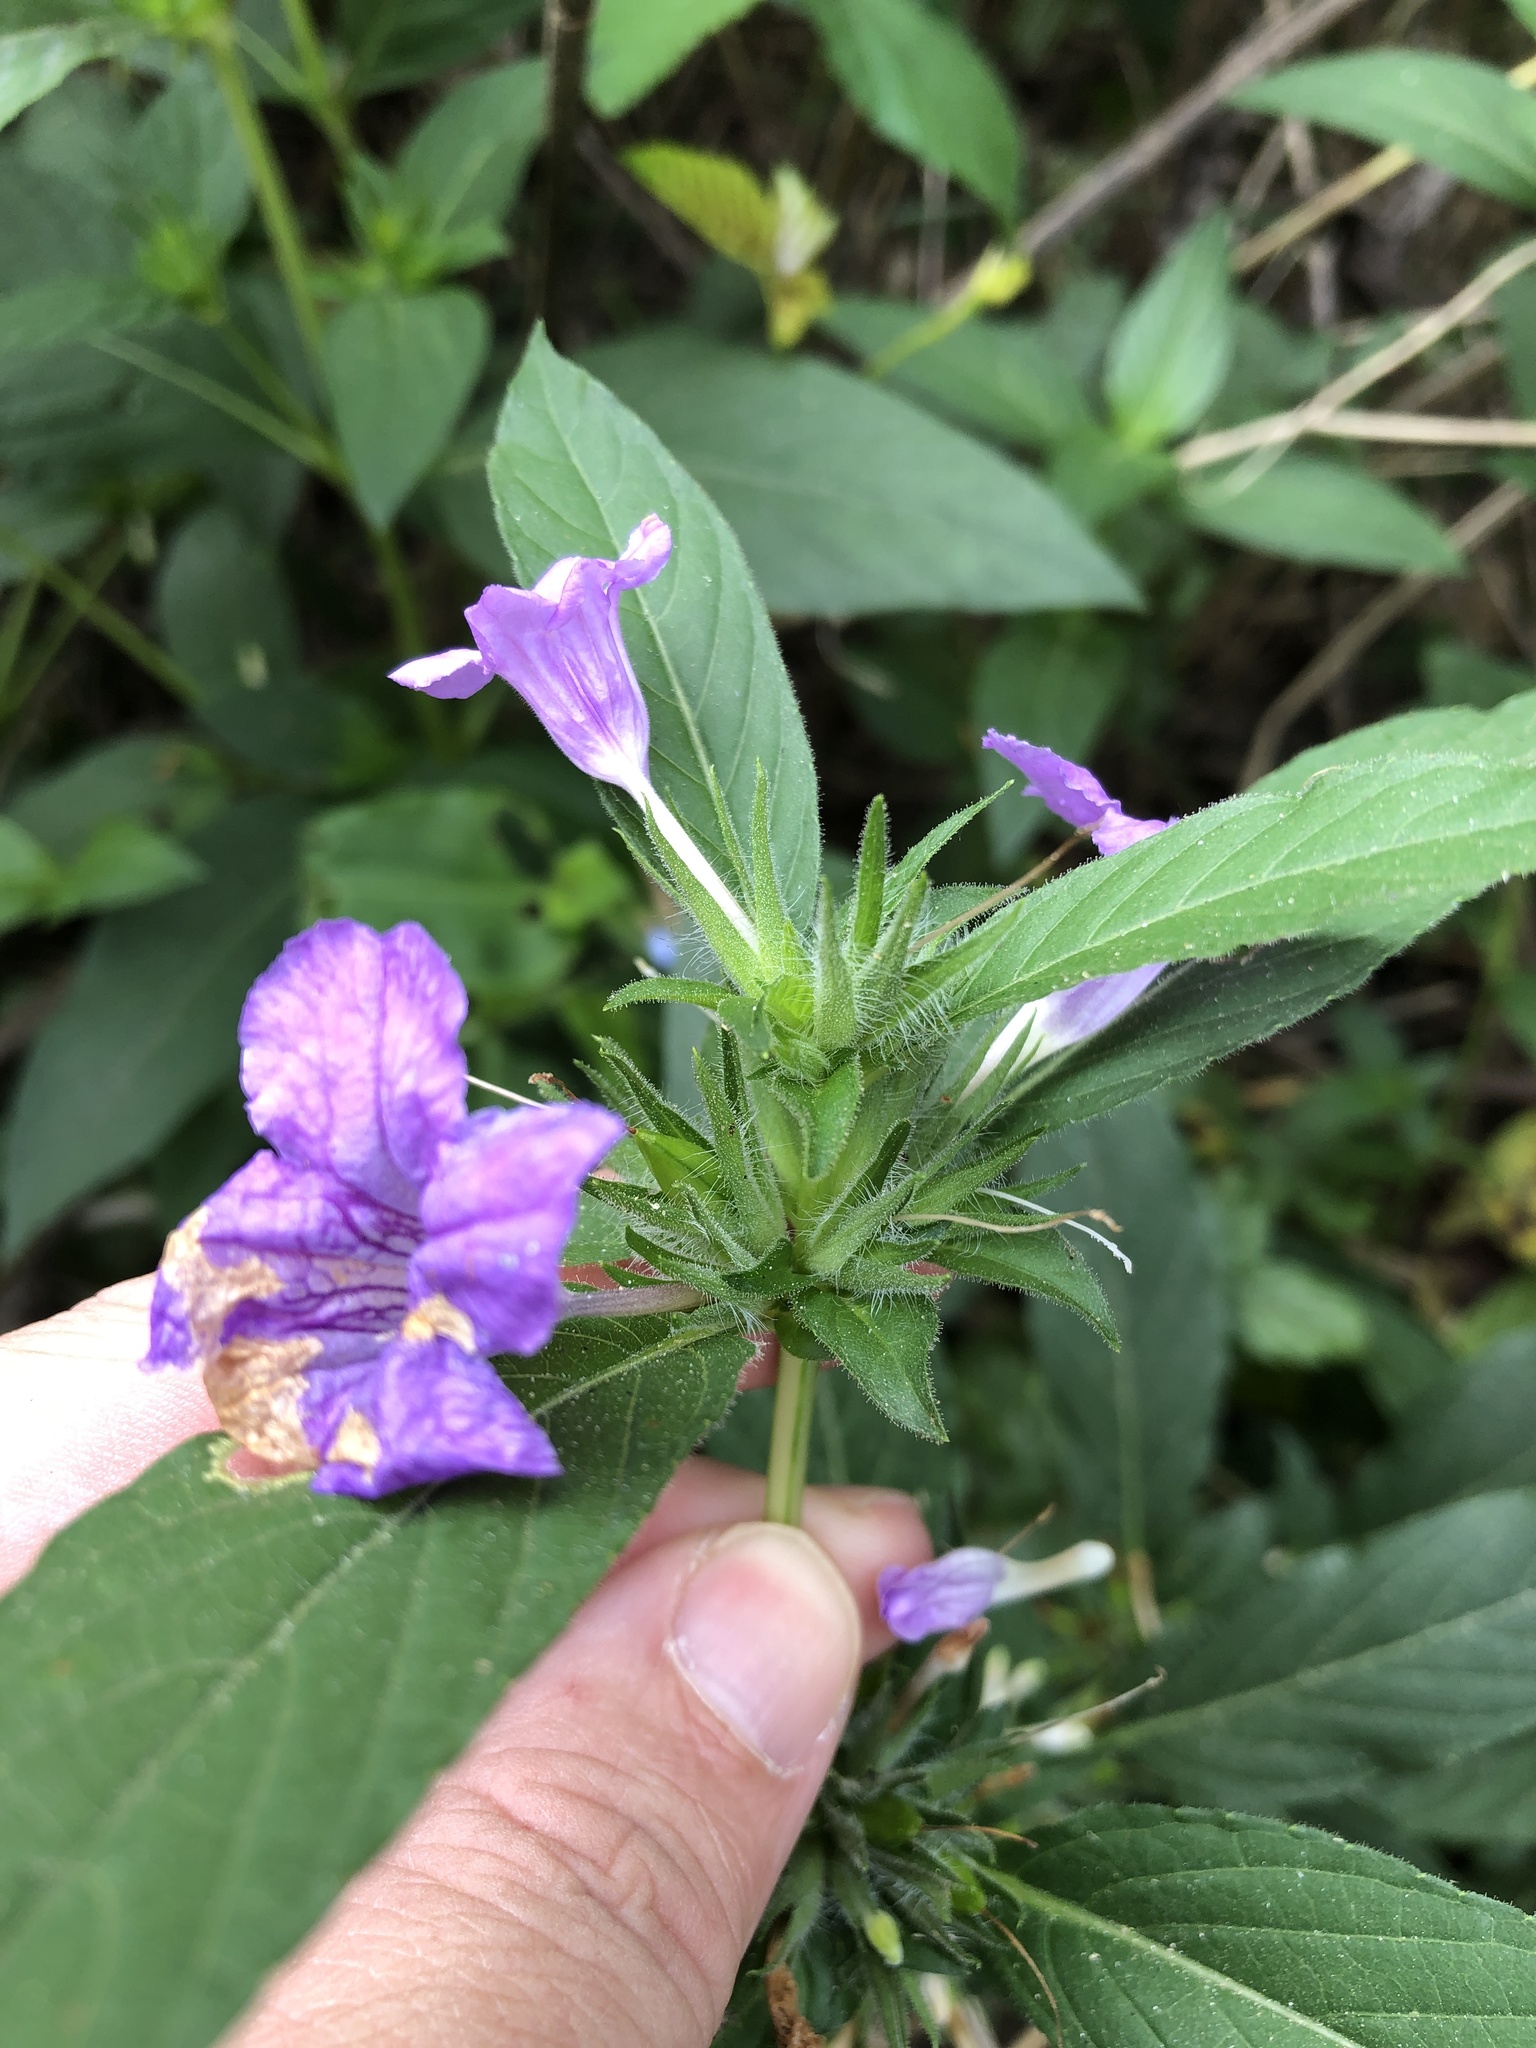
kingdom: Plantae
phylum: Tracheophyta
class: Magnoliopsida
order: Lamiales
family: Acanthaceae
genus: Ruellia
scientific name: Ruellia strepens
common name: Limestone wild petunia
